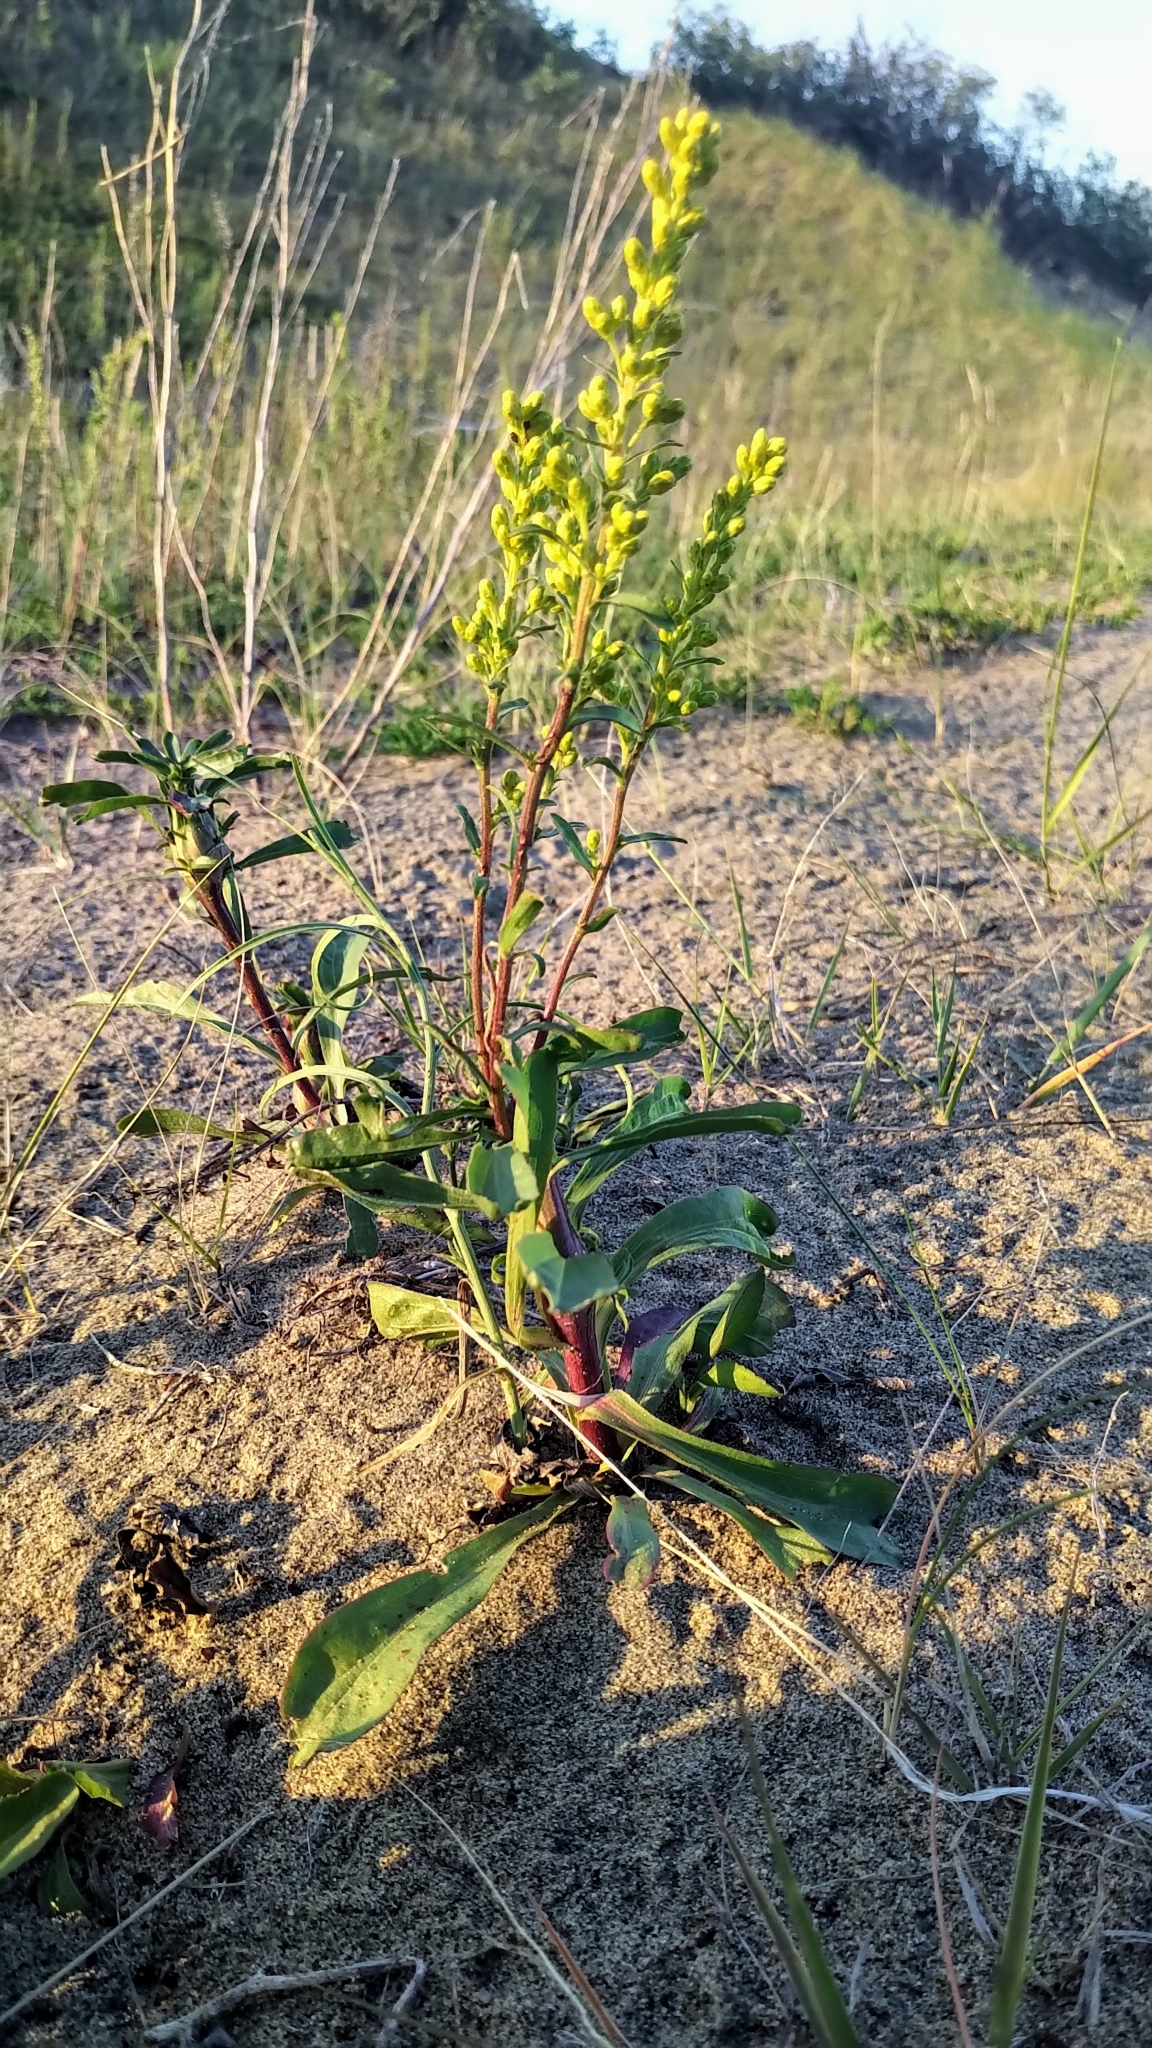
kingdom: Plantae
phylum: Tracheophyta
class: Magnoliopsida
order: Asterales
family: Asteraceae
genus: Solidago
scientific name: Solidago glutinosa
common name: Decumbent goldenrod
